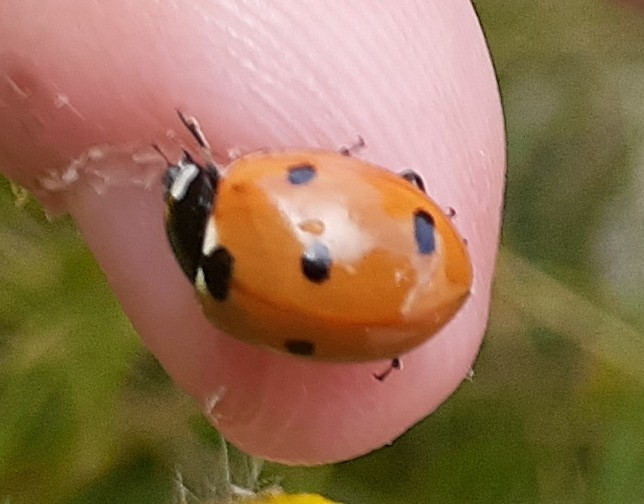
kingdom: Animalia
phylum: Arthropoda
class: Insecta
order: Coleoptera
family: Coccinellidae
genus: Coccinella
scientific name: Coccinella septempunctata
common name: Sevenspotted lady beetle
